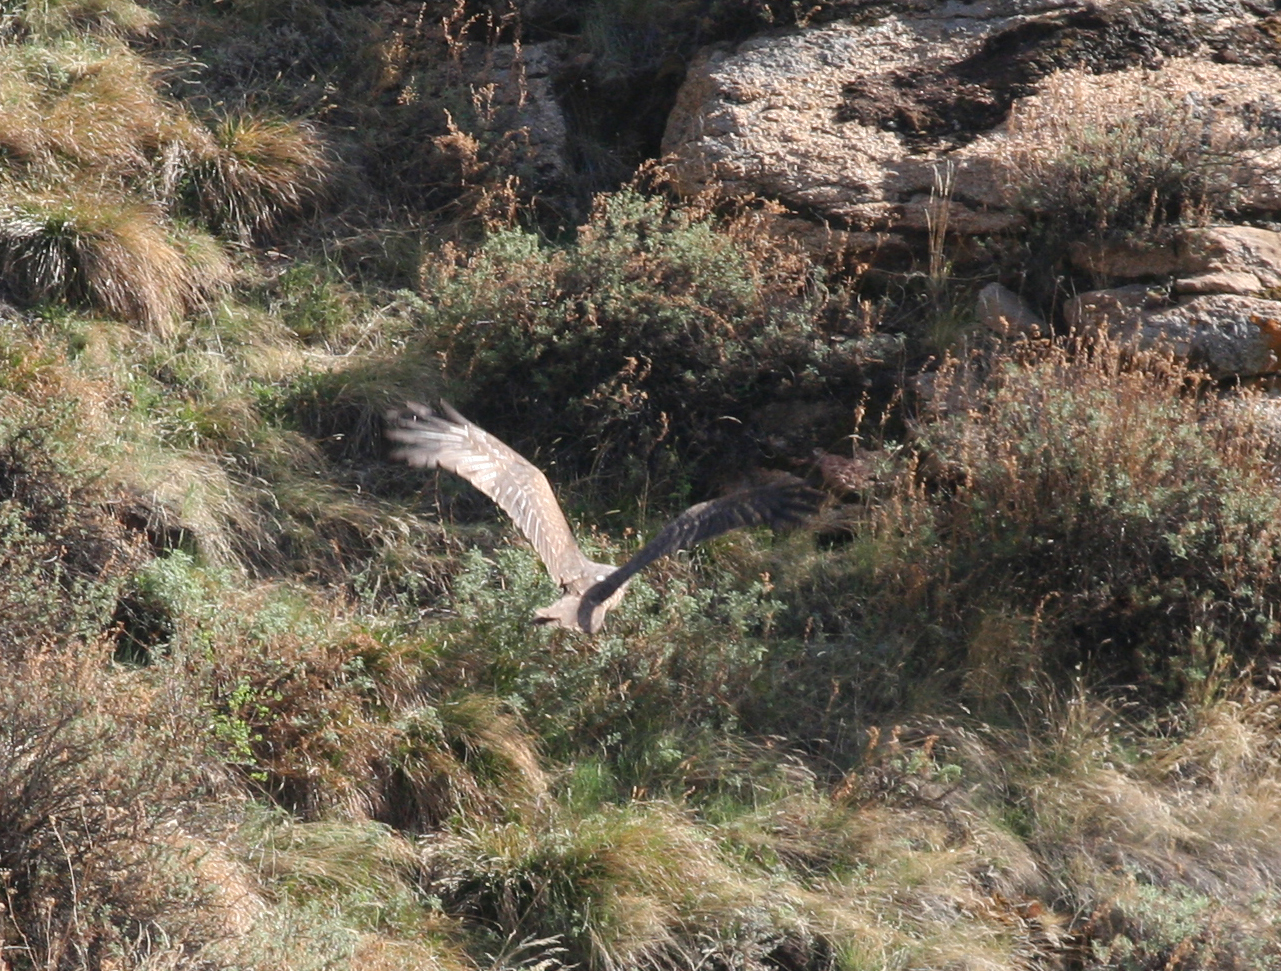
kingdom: Animalia
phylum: Chordata
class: Aves
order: Accipitriformes
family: Accipitridae
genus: Milvus
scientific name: Milvus migrans
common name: Black kite
